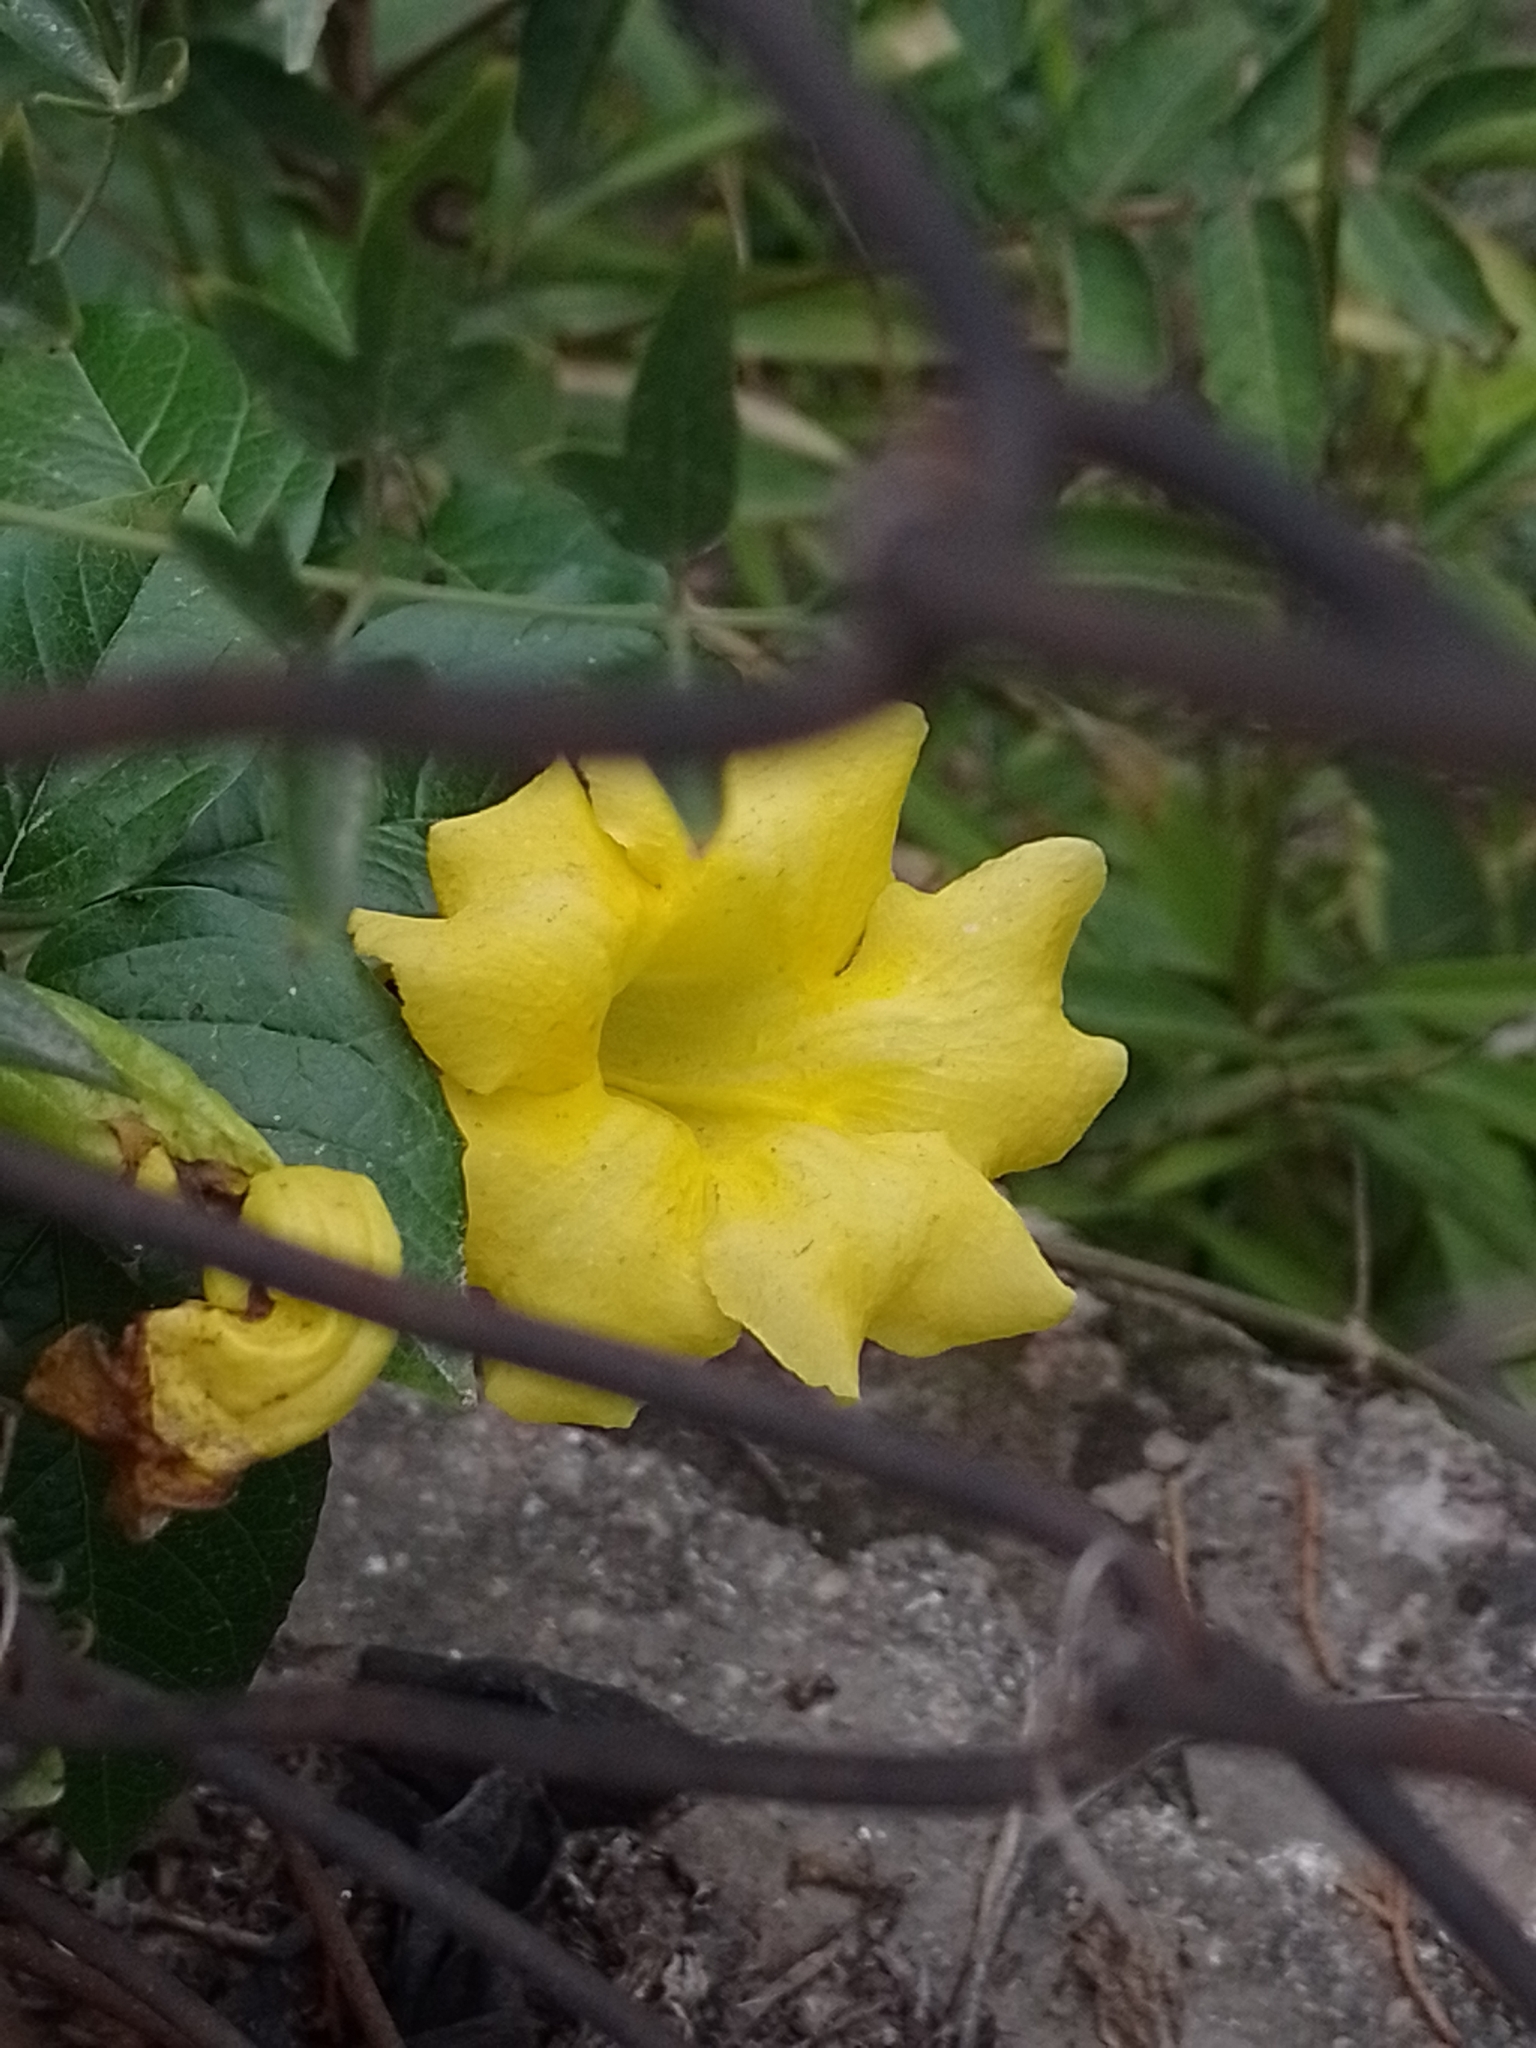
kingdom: Plantae
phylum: Tracheophyta
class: Magnoliopsida
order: Lamiales
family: Bignoniaceae
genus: Dolichandra
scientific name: Dolichandra dentata
